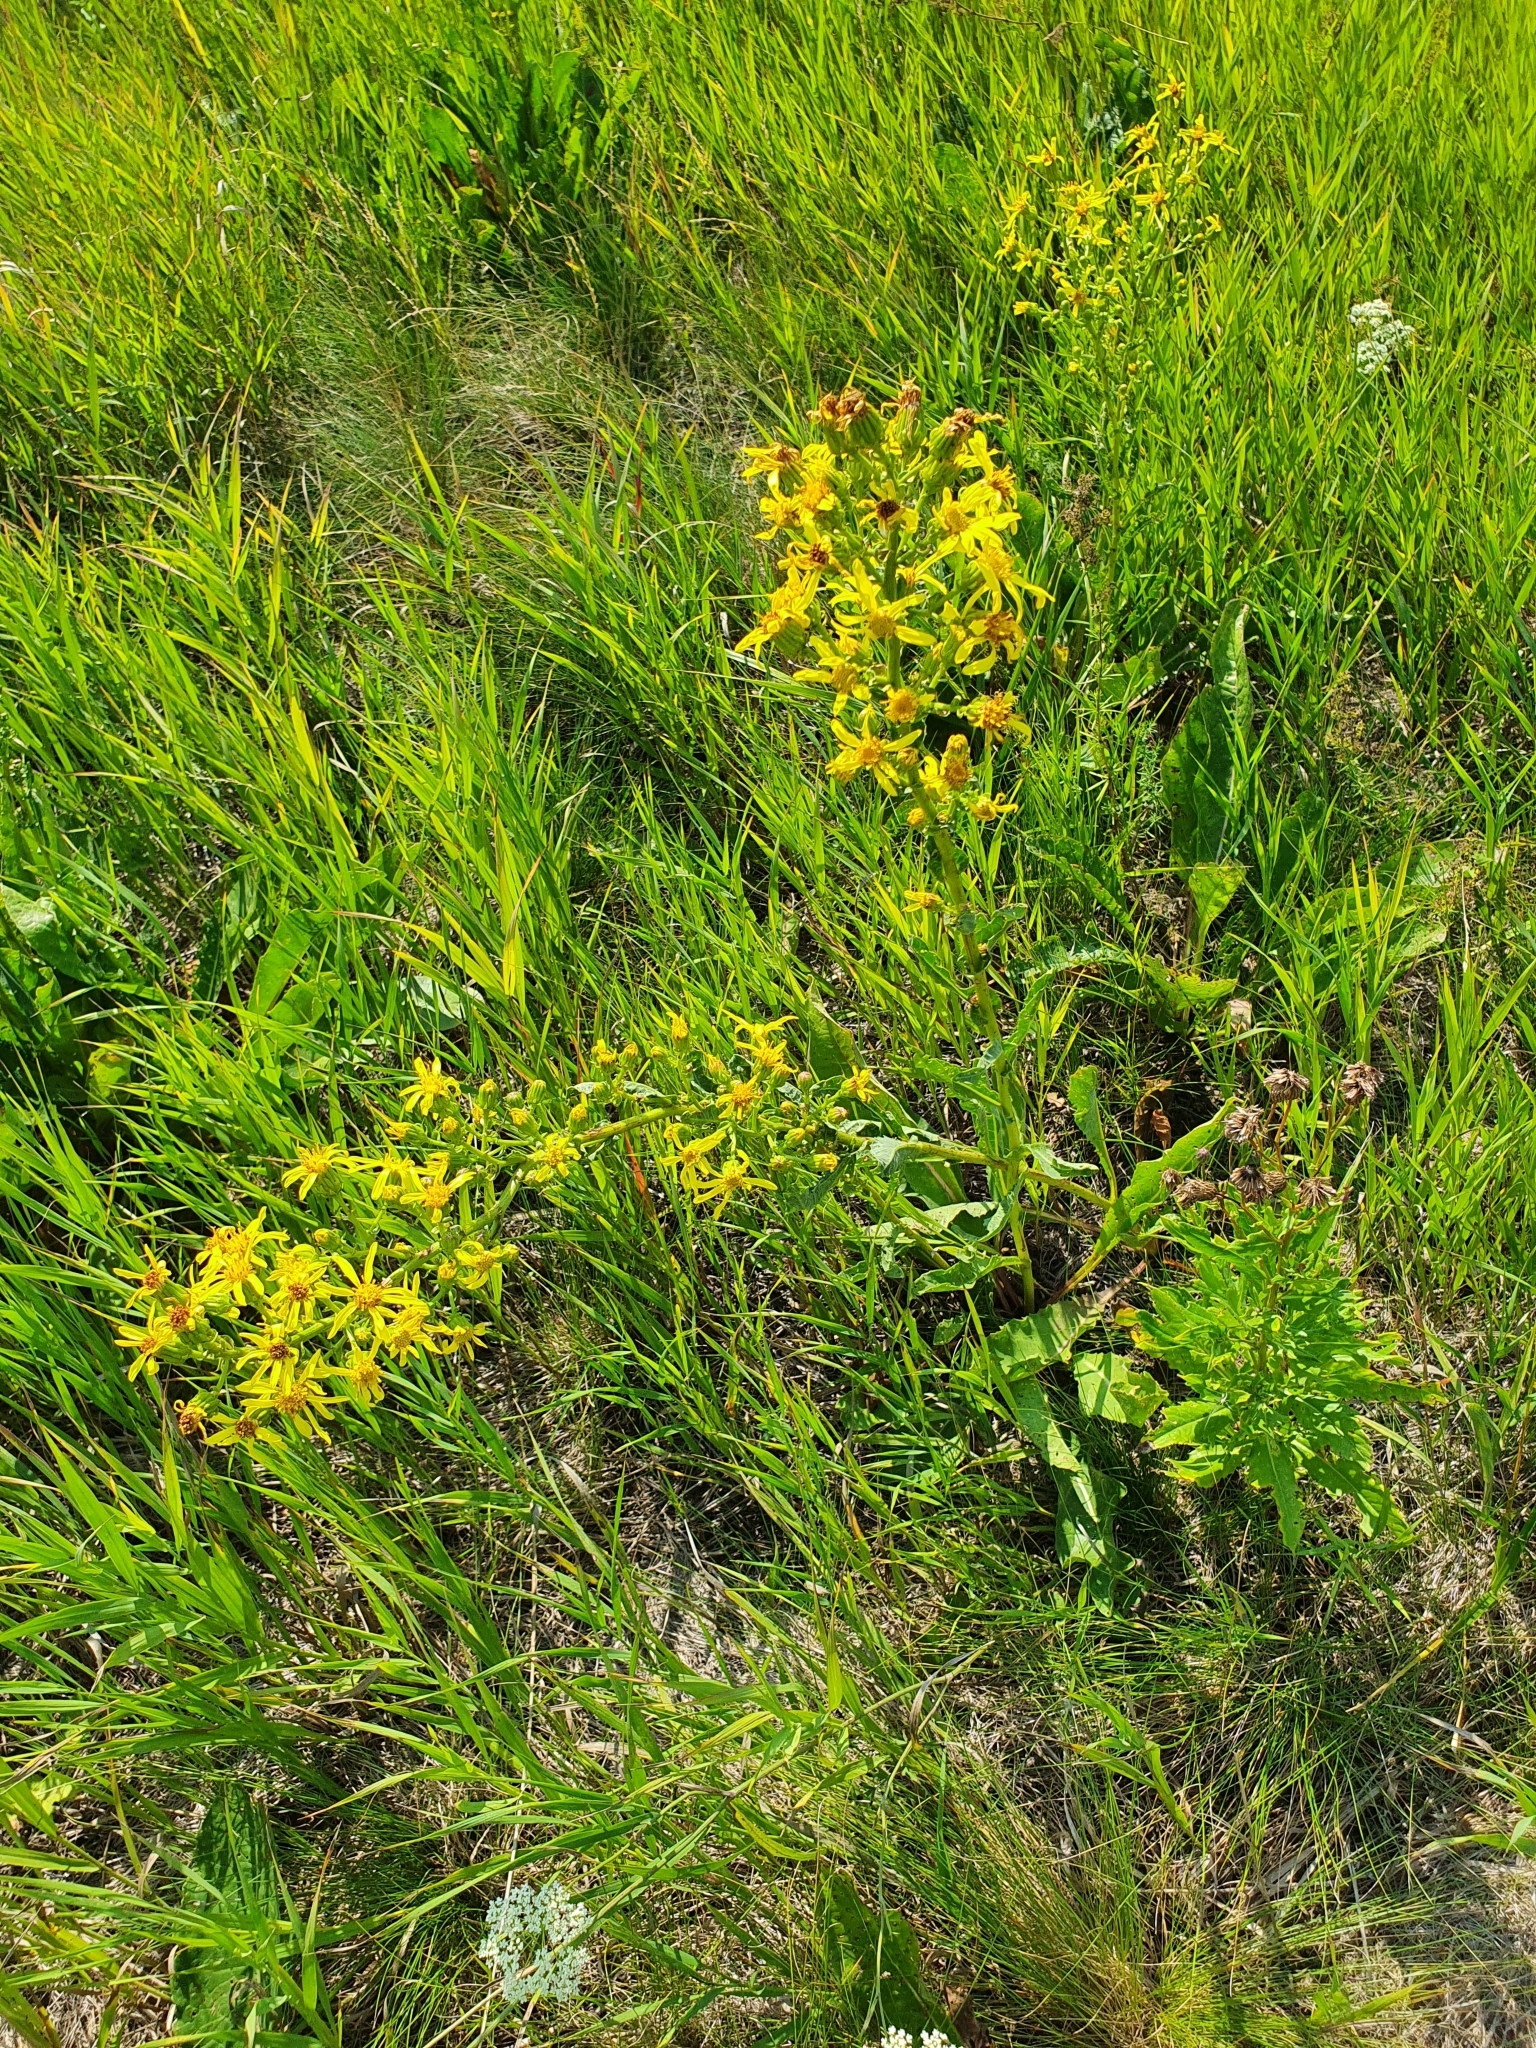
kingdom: Plantae
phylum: Tracheophyta
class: Magnoliopsida
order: Asterales
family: Asteraceae
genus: Jacobaea
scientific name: Jacobaea racemosa
